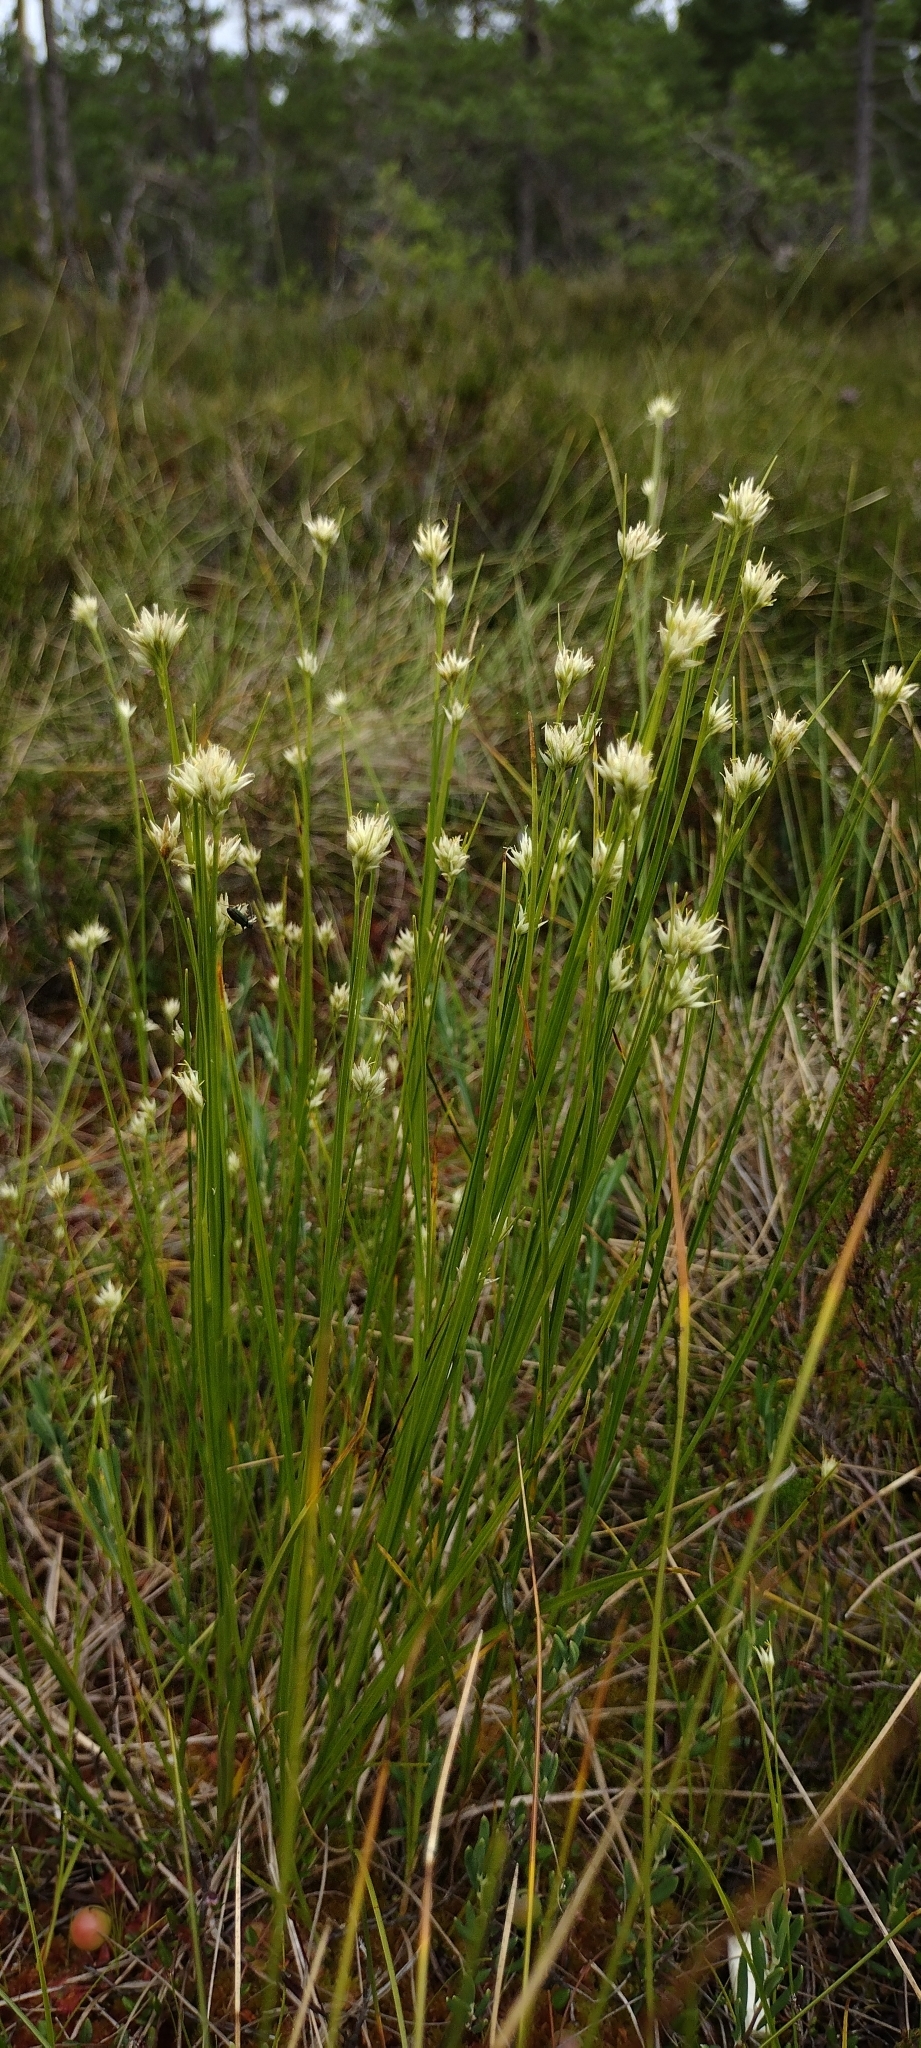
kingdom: Plantae
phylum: Tracheophyta
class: Liliopsida
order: Poales
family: Cyperaceae
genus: Rhynchospora
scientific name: Rhynchospora alba
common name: White beak-sedge
